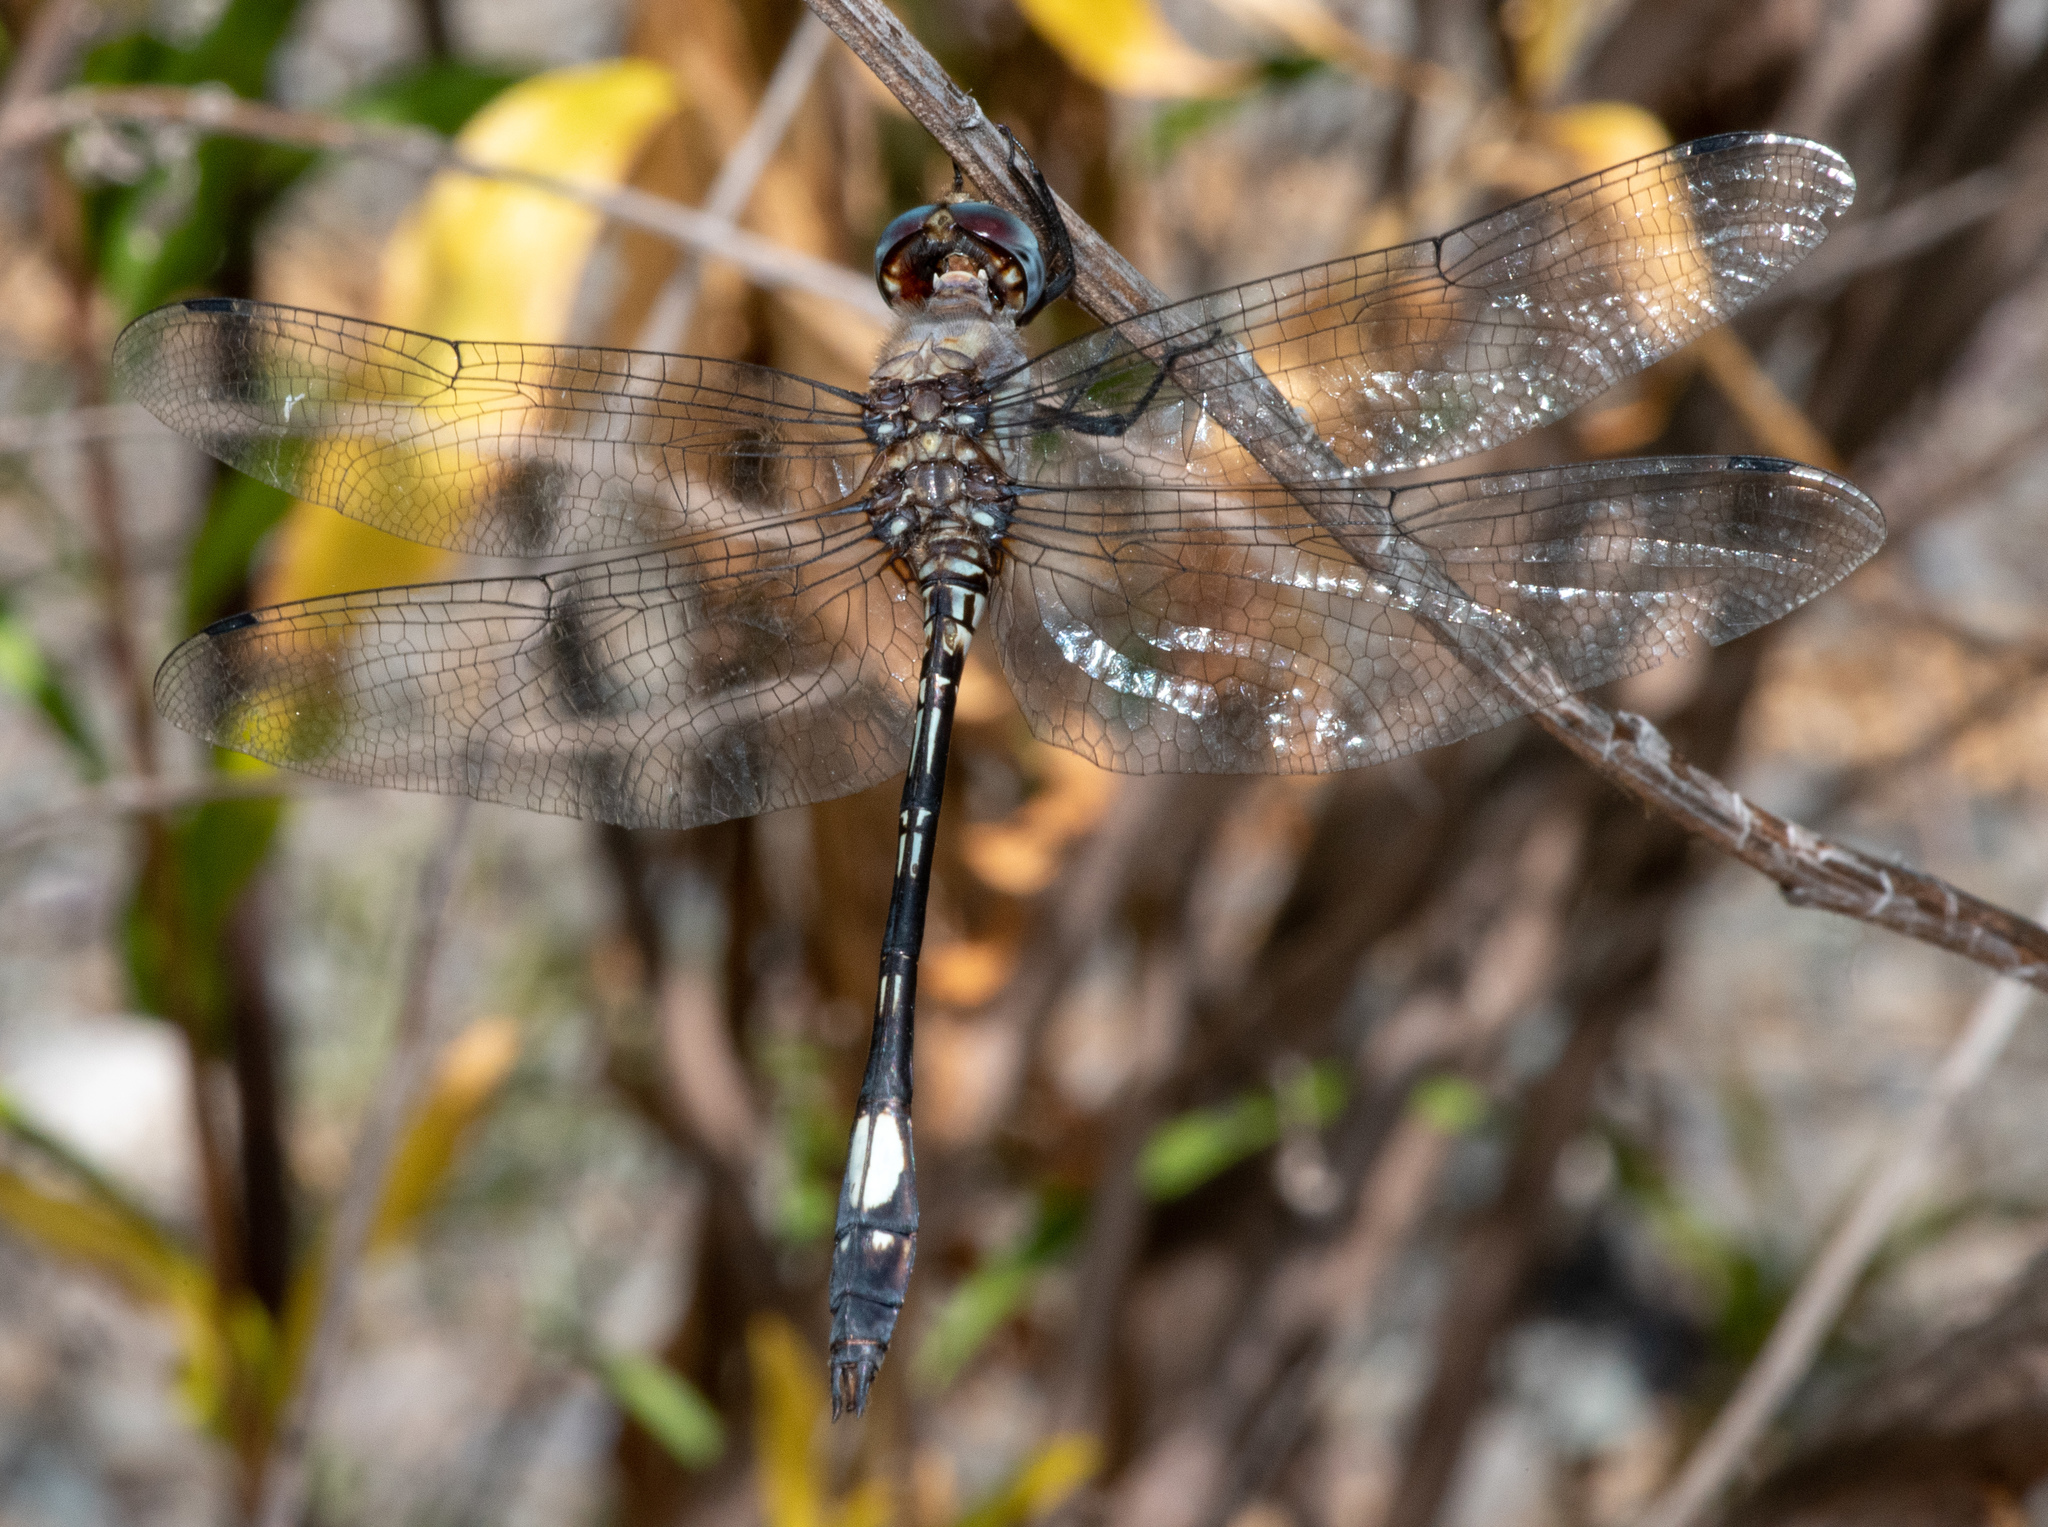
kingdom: Animalia
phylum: Arthropoda
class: Insecta
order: Odonata
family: Libellulidae
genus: Brechmorhoga
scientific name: Brechmorhoga mendax
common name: Pale-faced clubskimmer
